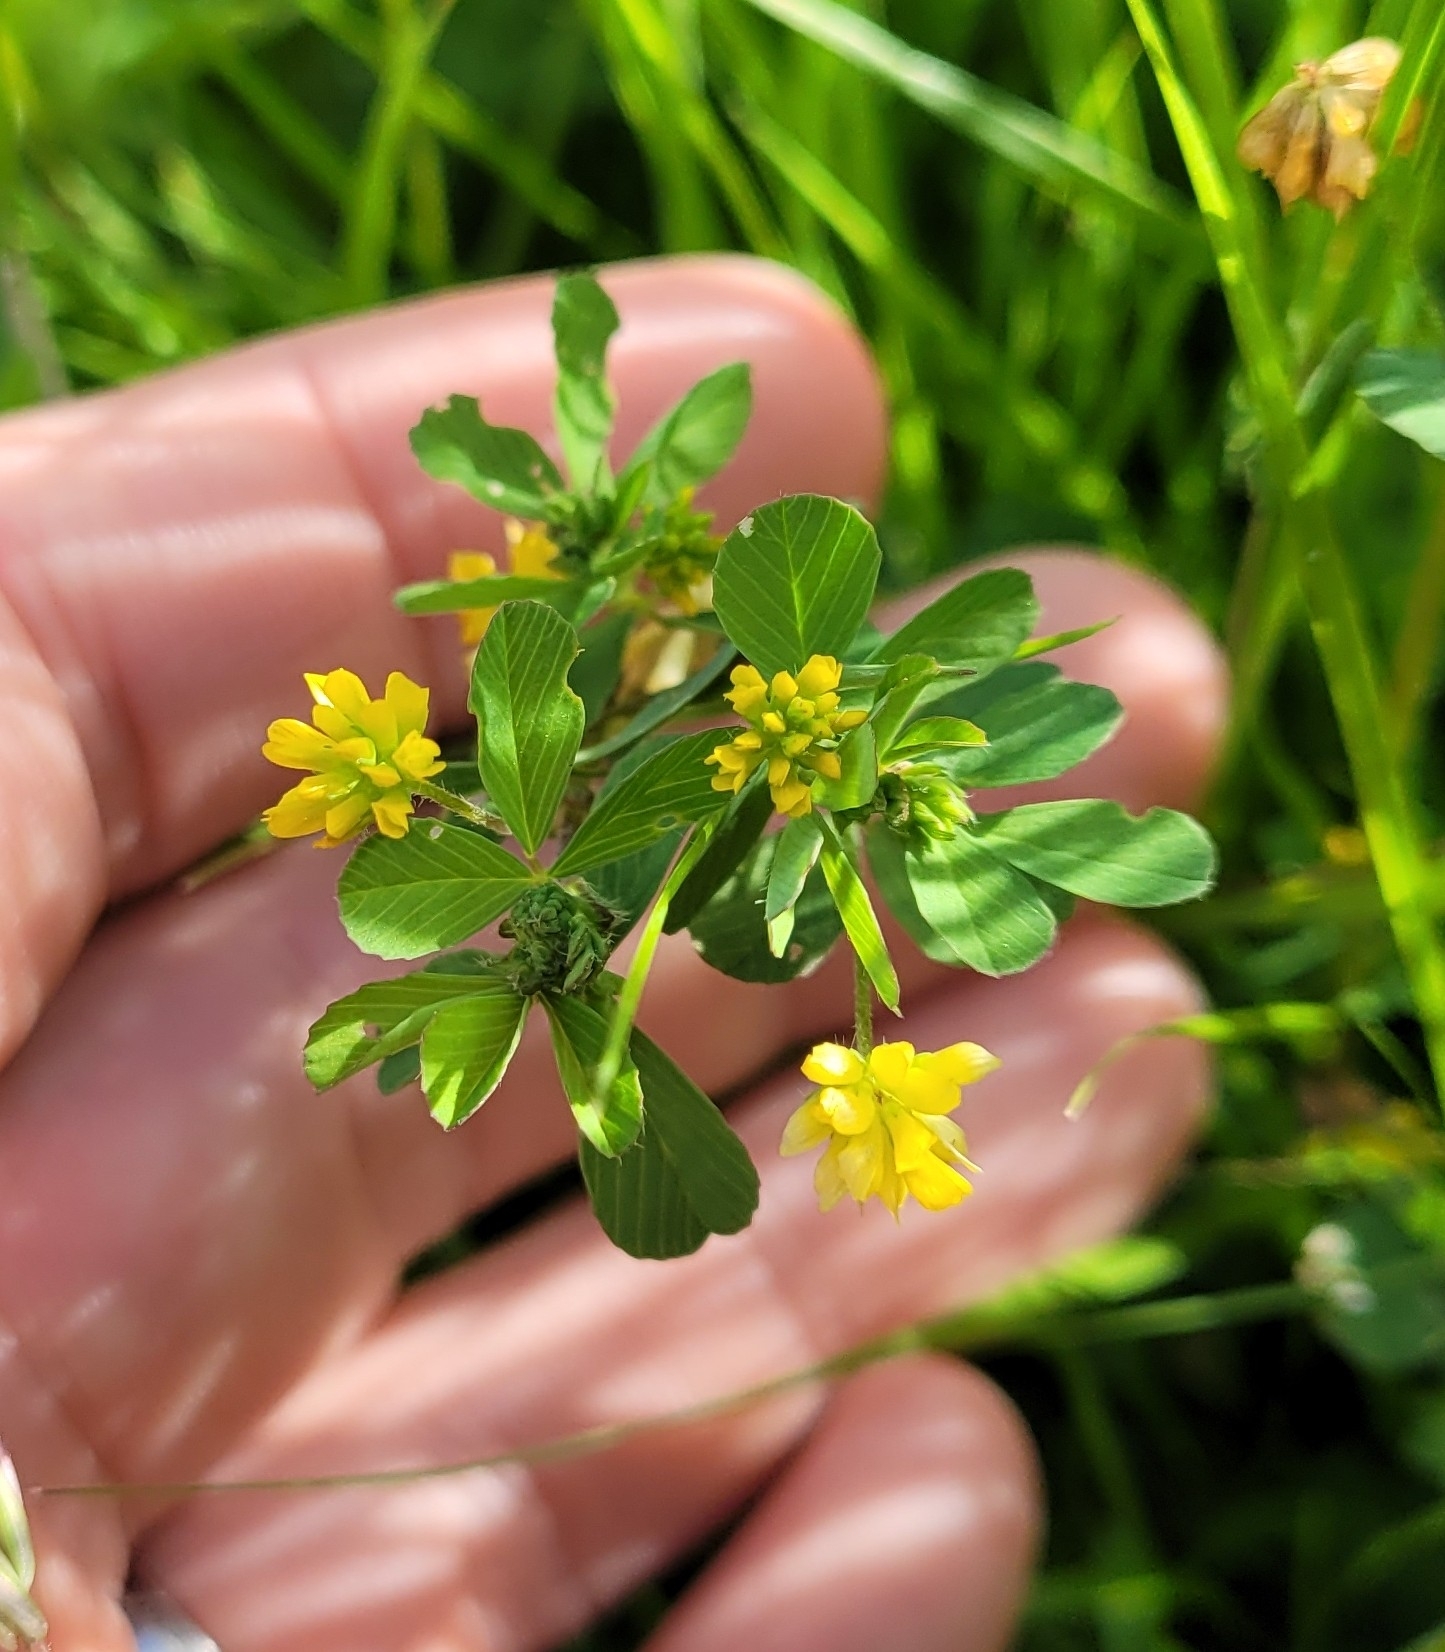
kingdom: Plantae
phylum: Tracheophyta
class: Magnoliopsida
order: Fabales
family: Fabaceae
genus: Trifolium
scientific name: Trifolium dubium
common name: Suckling clover
